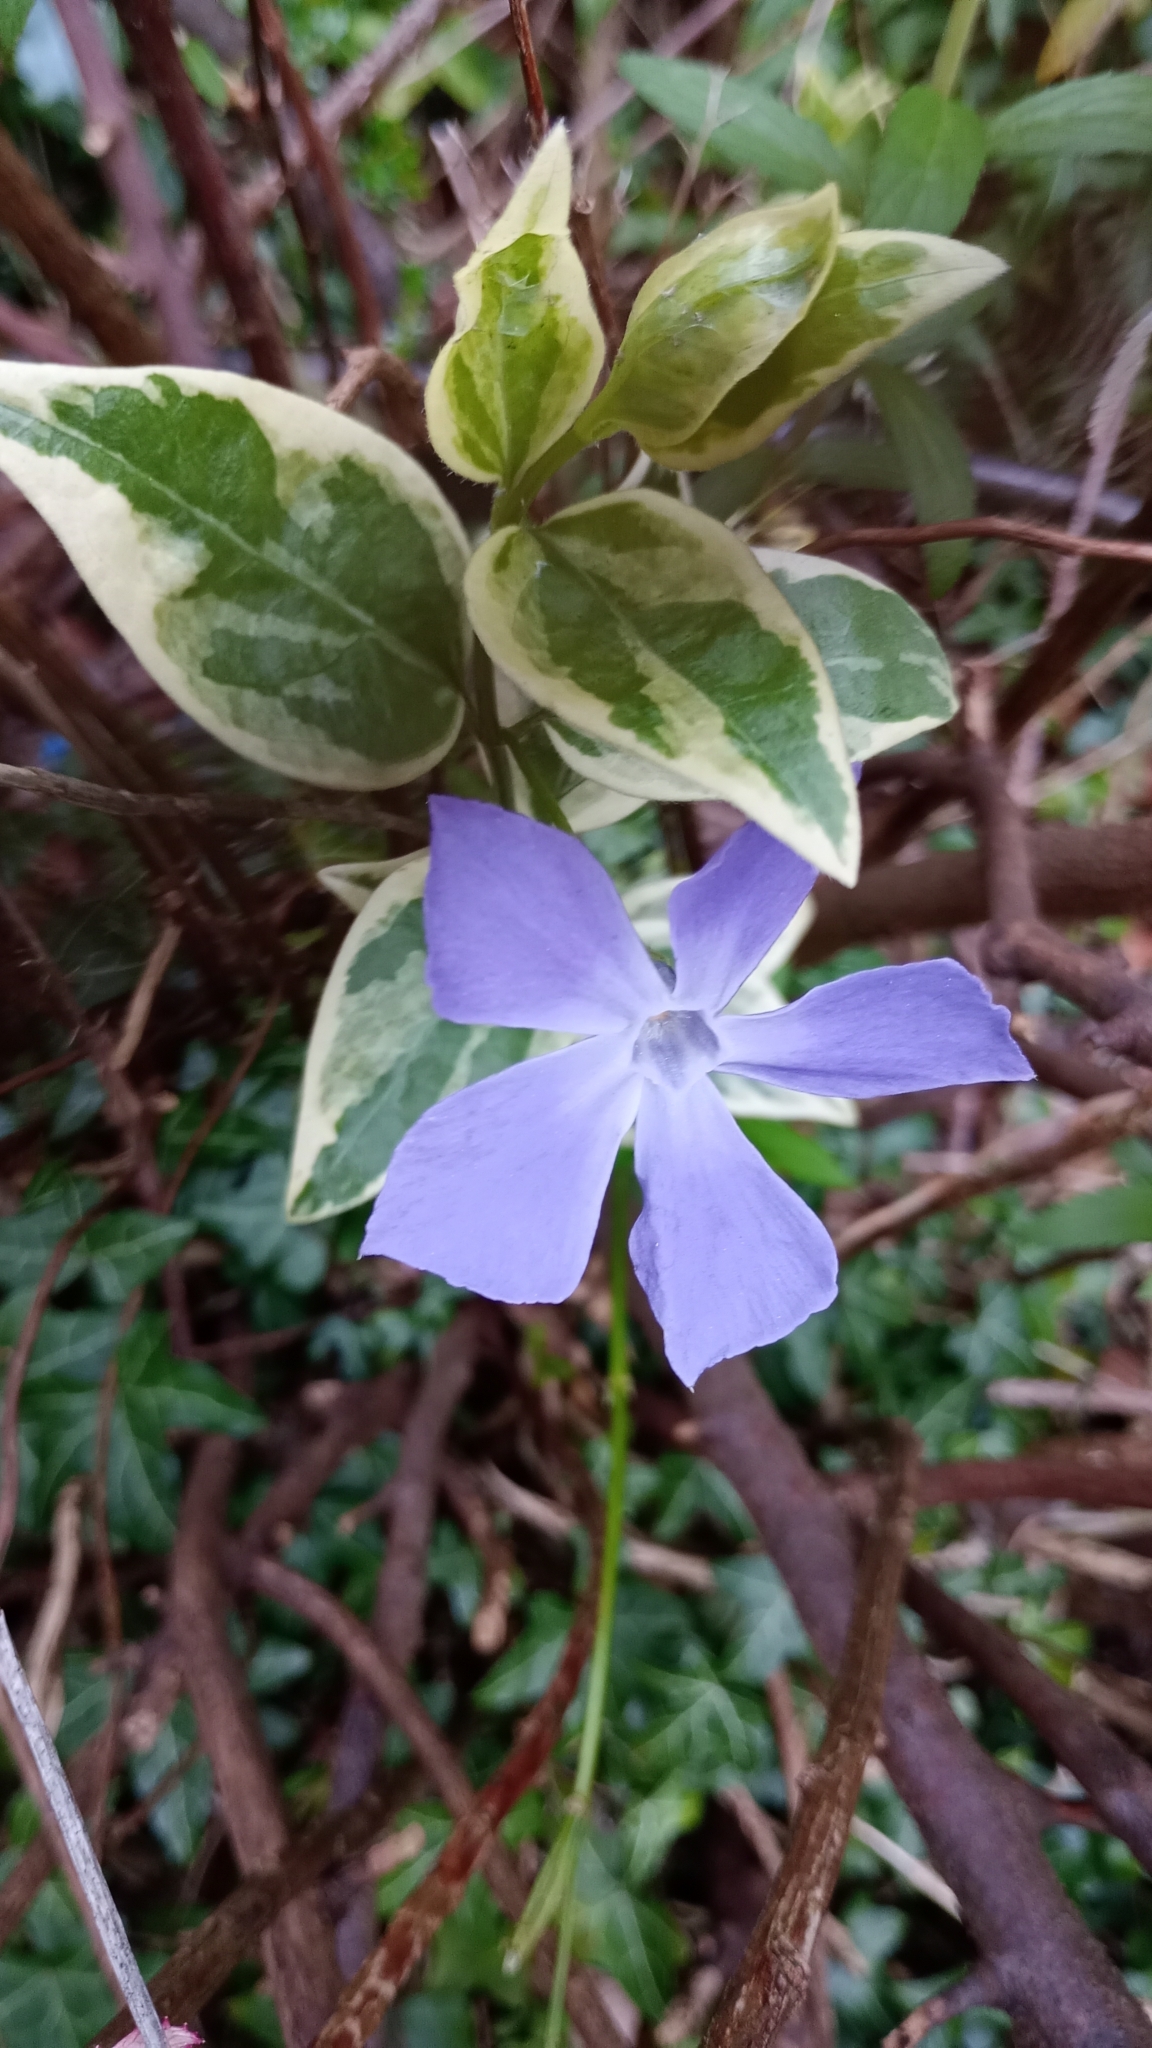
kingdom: Plantae
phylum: Tracheophyta
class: Magnoliopsida
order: Gentianales
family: Apocynaceae
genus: Vinca
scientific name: Vinca major
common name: Greater periwinkle
